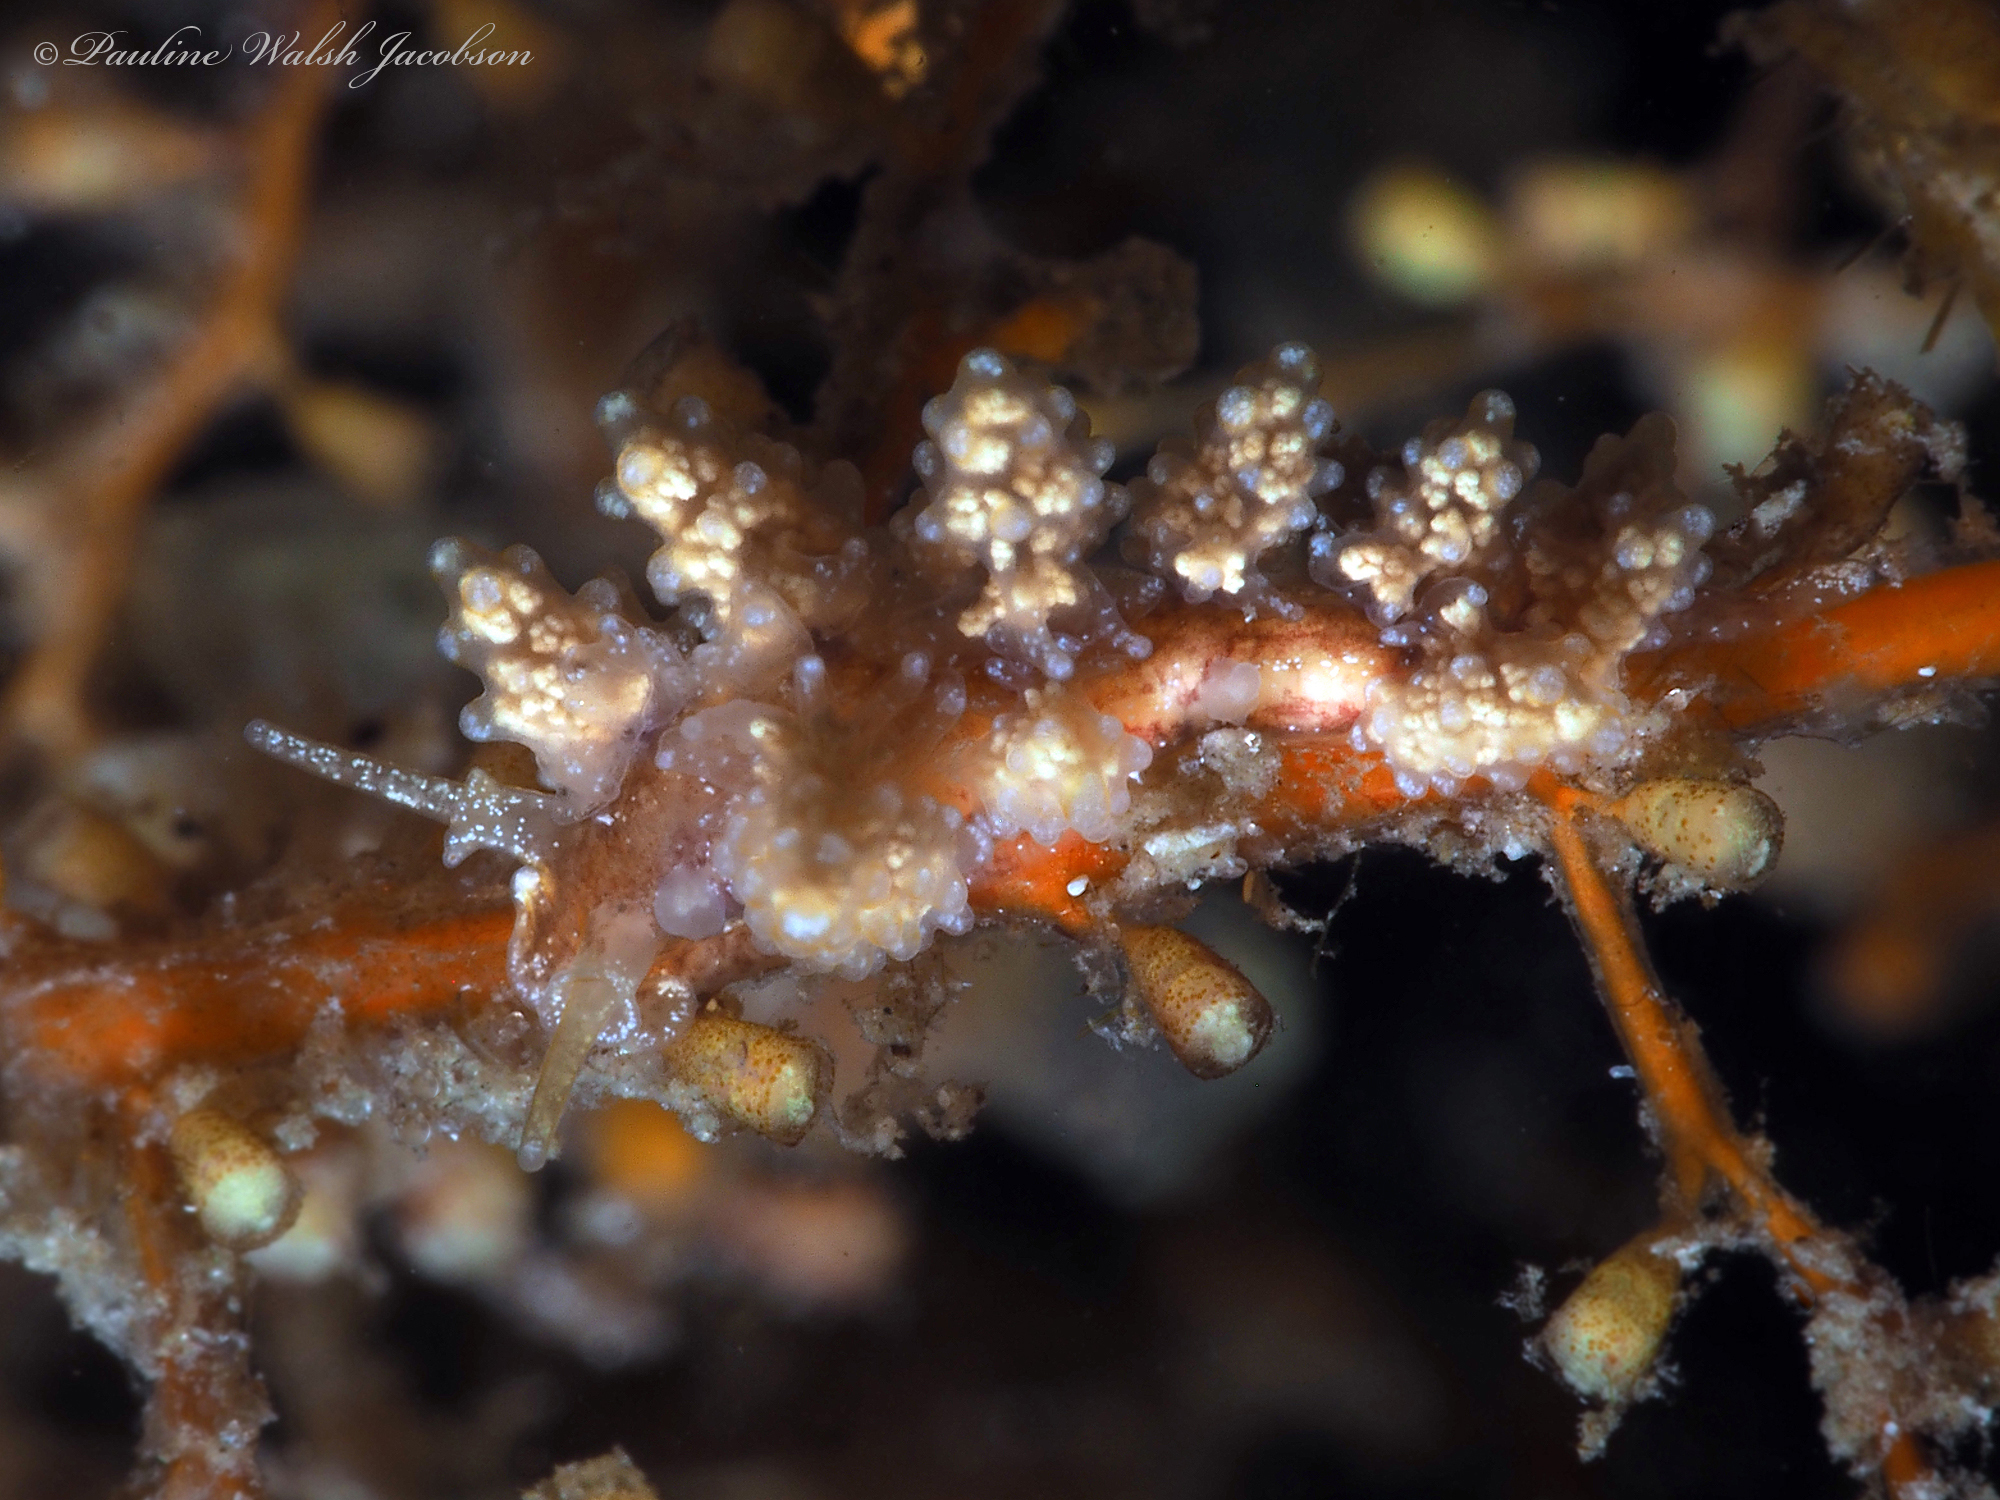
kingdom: Animalia
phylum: Mollusca
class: Gastropoda
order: Nudibranchia
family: Dotidae
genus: Doto
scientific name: Doto torrelavega
